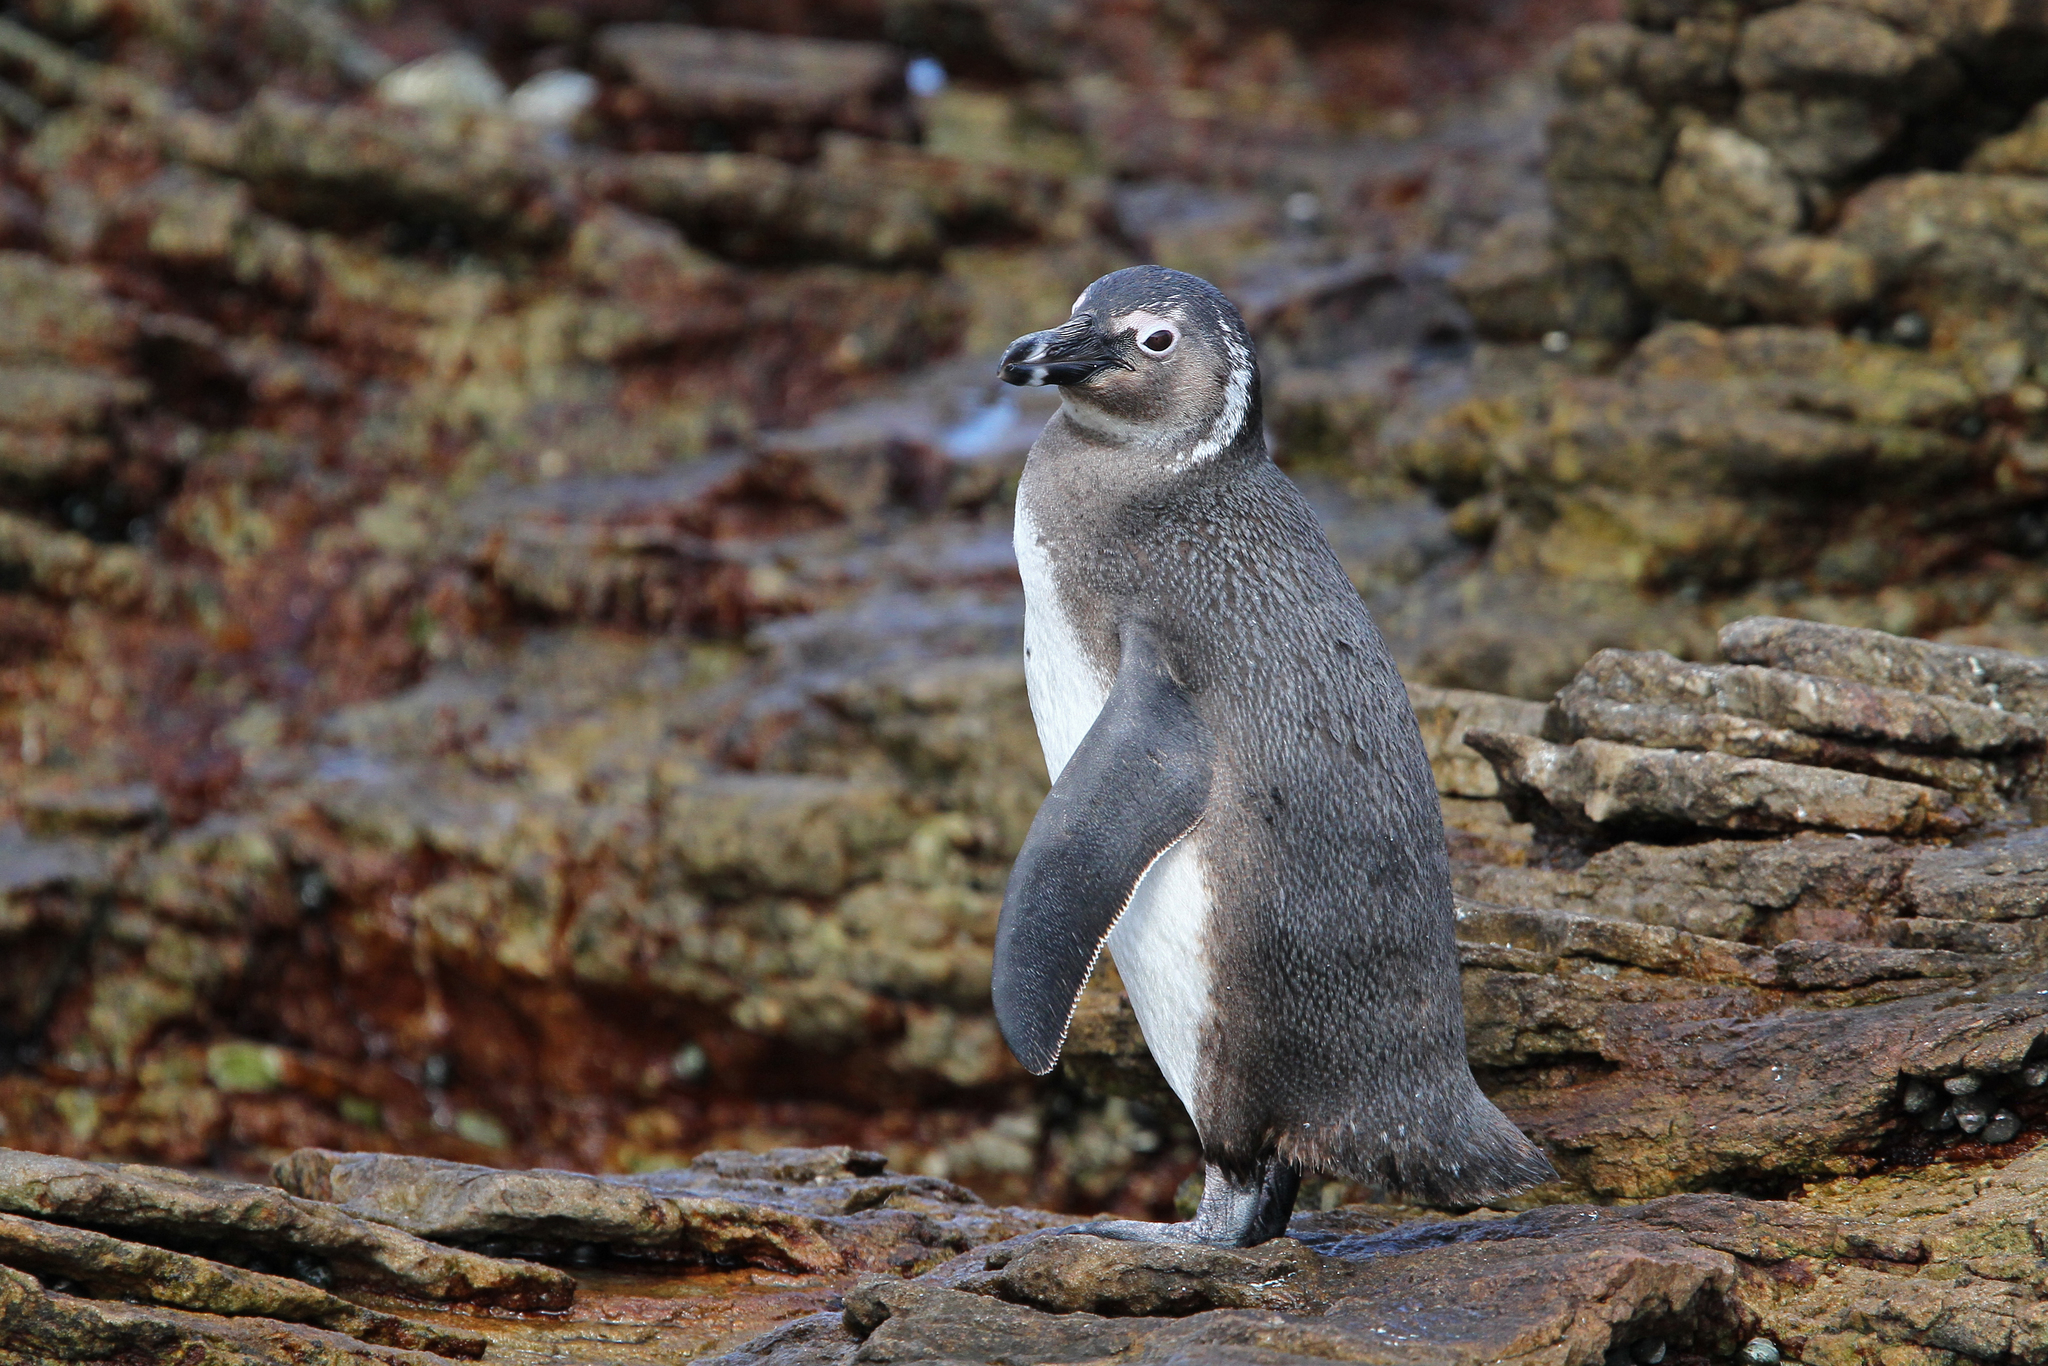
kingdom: Animalia
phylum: Chordata
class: Aves
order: Sphenisciformes
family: Spheniscidae
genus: Spheniscus
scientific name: Spheniscus demersus
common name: African penguin
